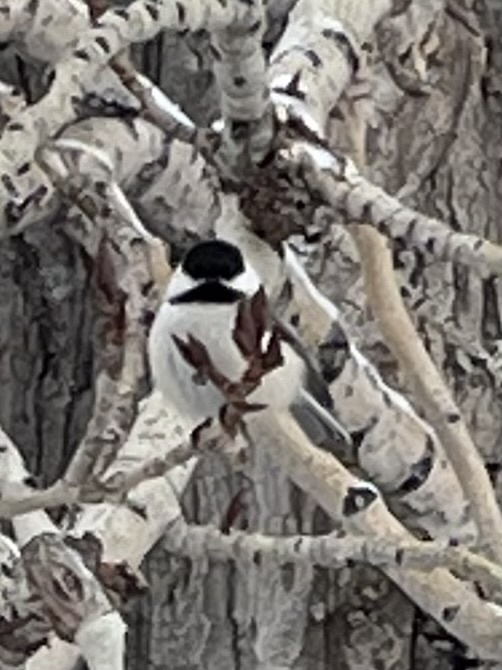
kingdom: Animalia
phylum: Chordata
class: Aves
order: Passeriformes
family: Paridae
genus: Poecile
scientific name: Poecile atricapillus
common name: Black-capped chickadee
